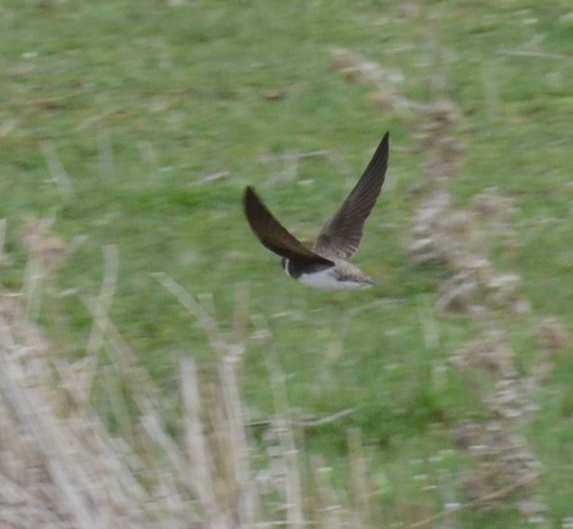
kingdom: Animalia
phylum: Chordata
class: Aves
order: Passeriformes
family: Hirundinidae
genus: Riparia
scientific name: Riparia riparia
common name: Sand martin
